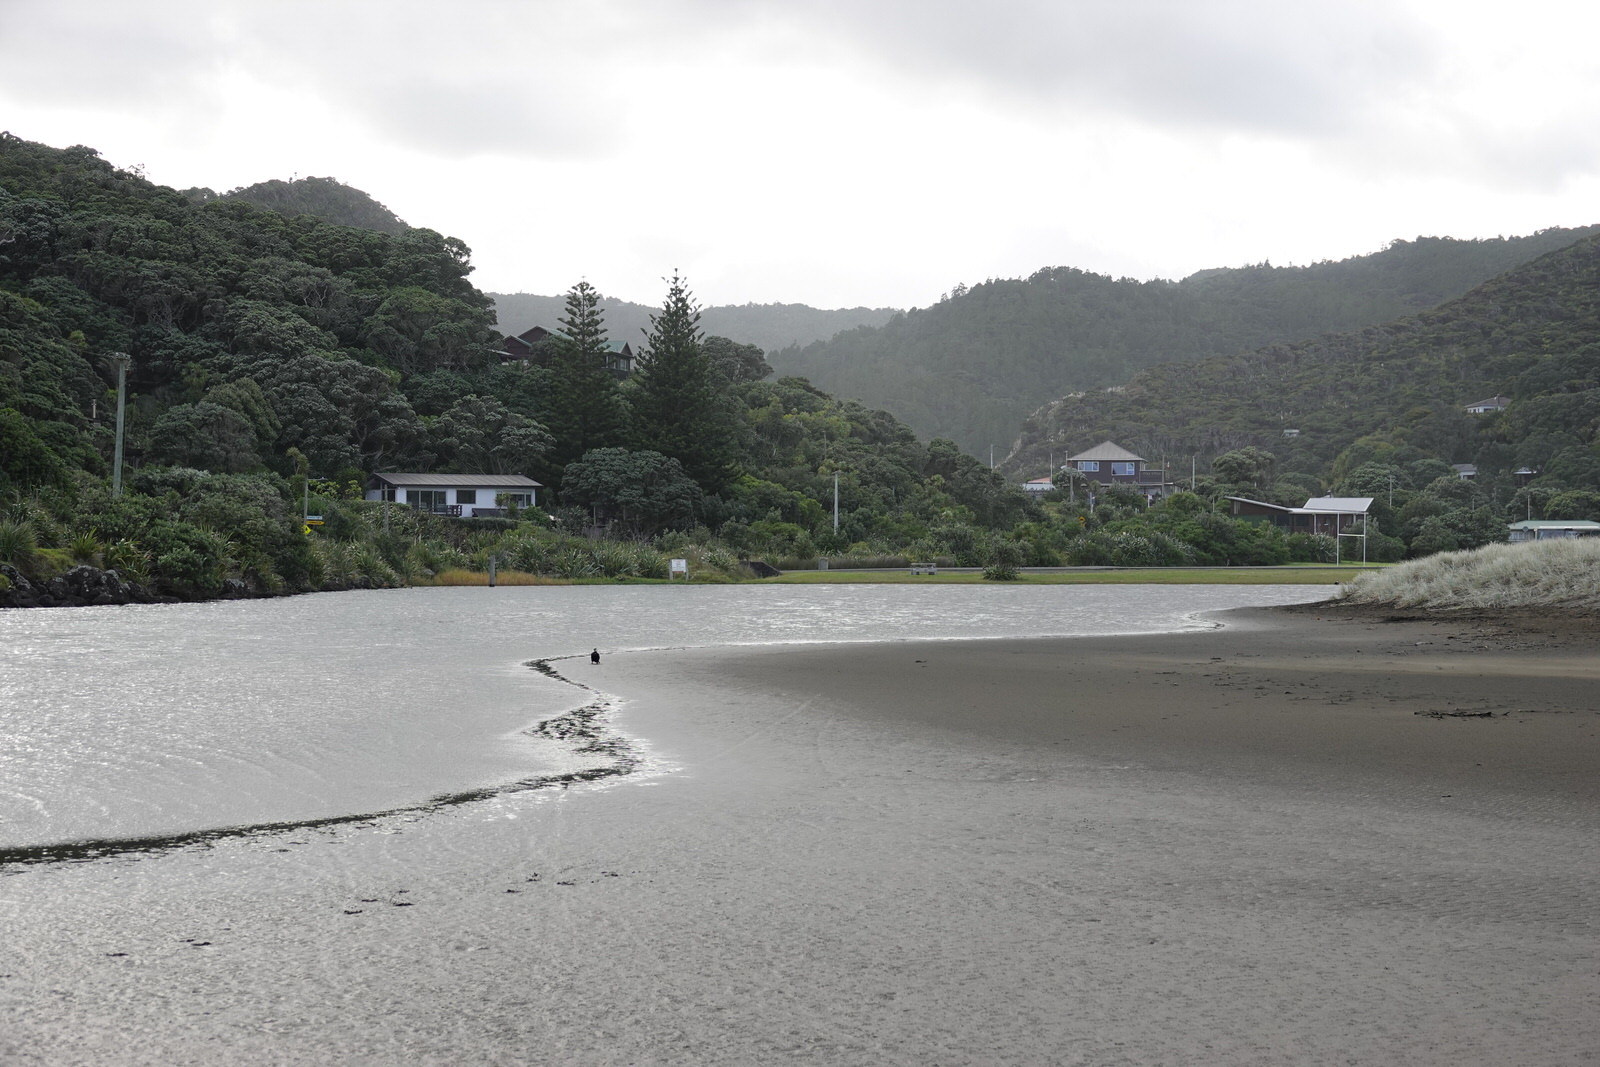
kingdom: Animalia
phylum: Chordata
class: Aves
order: Suliformes
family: Phalacrocoracidae
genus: Microcarbo
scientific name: Microcarbo melanoleucos
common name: Little pied cormorant
